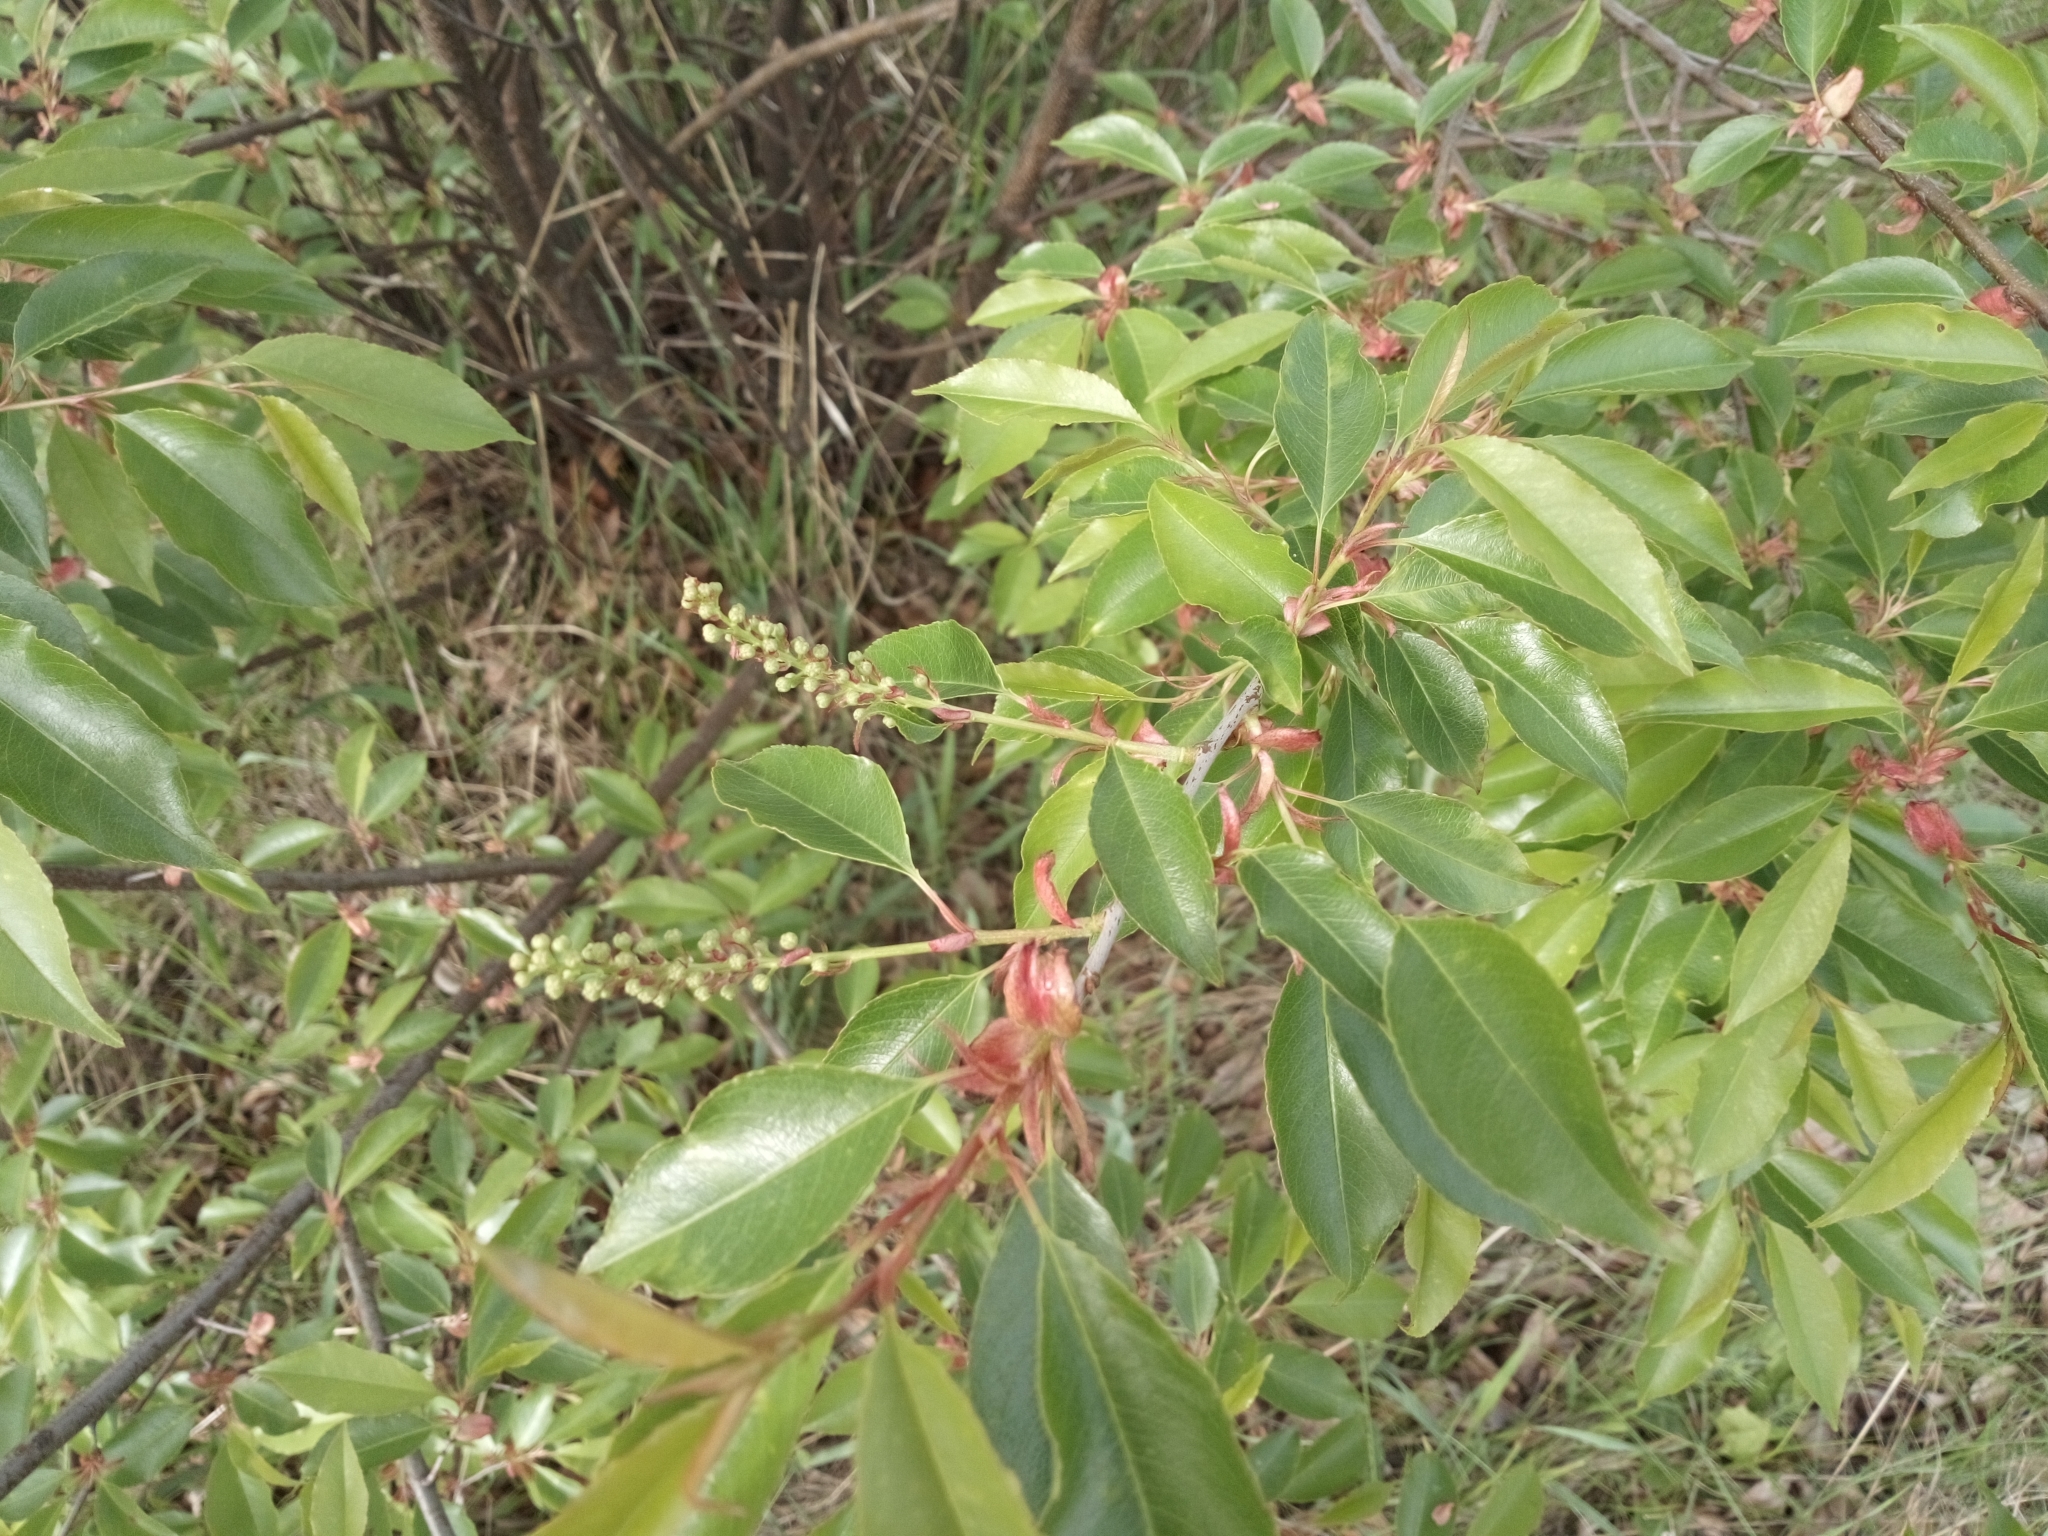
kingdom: Plantae
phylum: Tracheophyta
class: Magnoliopsida
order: Rosales
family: Rosaceae
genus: Prunus
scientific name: Prunus serotina
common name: Black cherry
